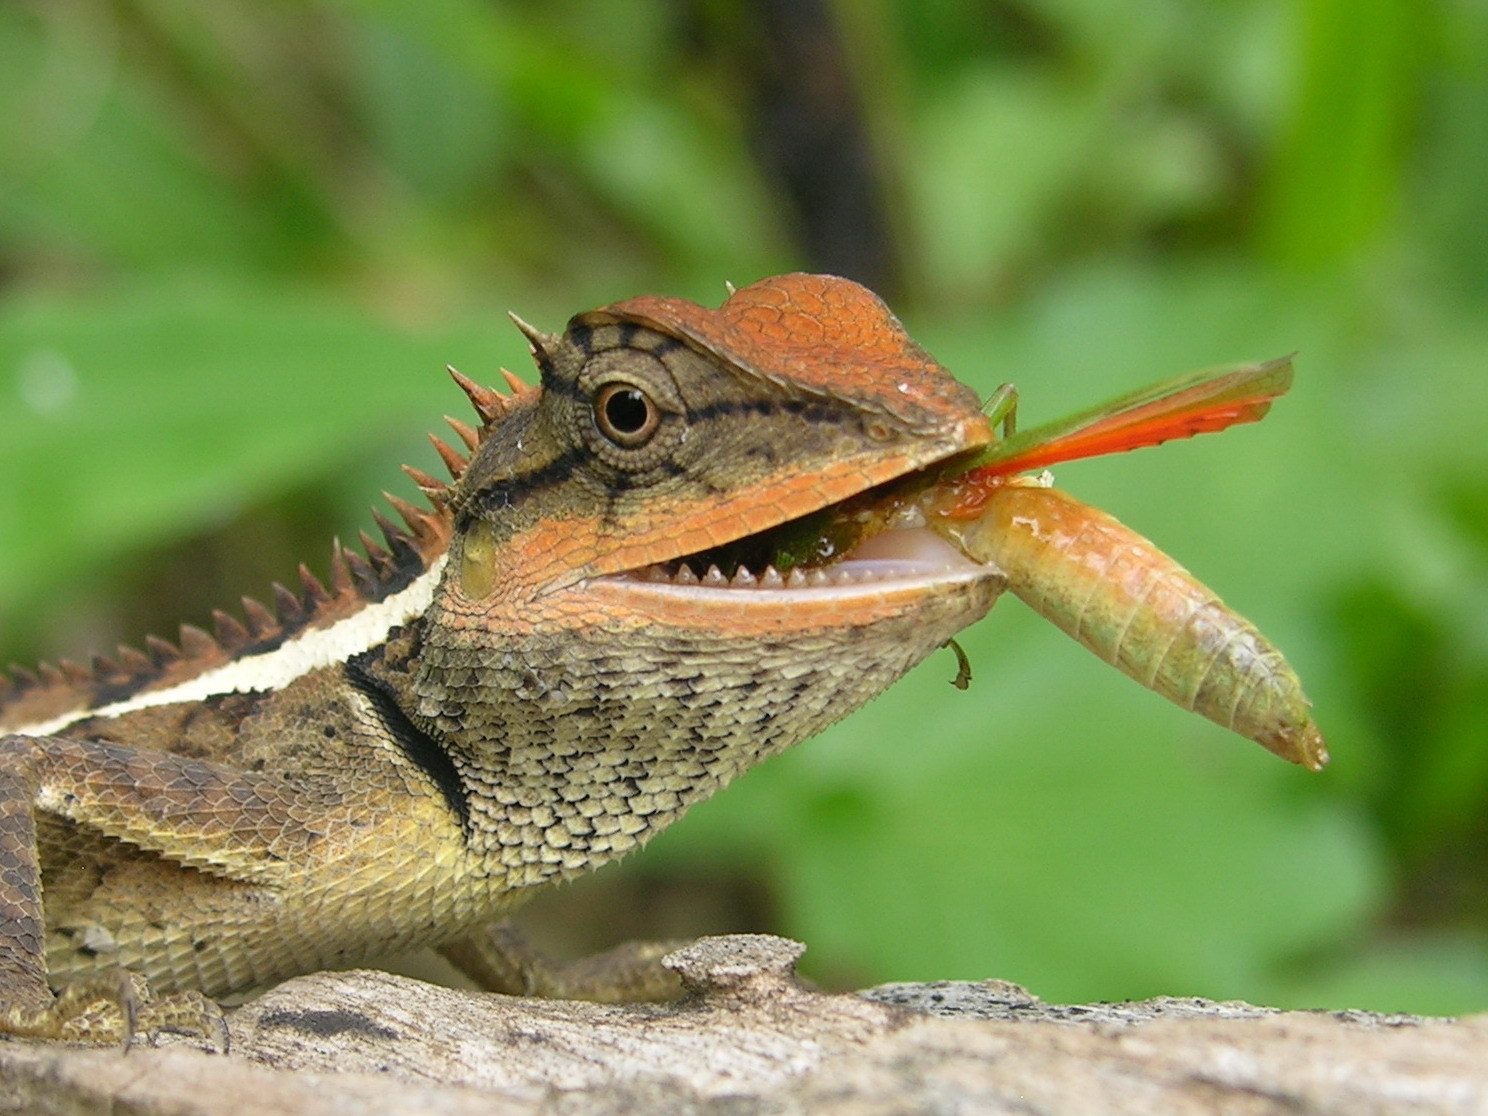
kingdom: Animalia
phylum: Chordata
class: Squamata
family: Agamidae
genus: Calotes
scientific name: Calotes emma
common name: Thailand bloodsucker
